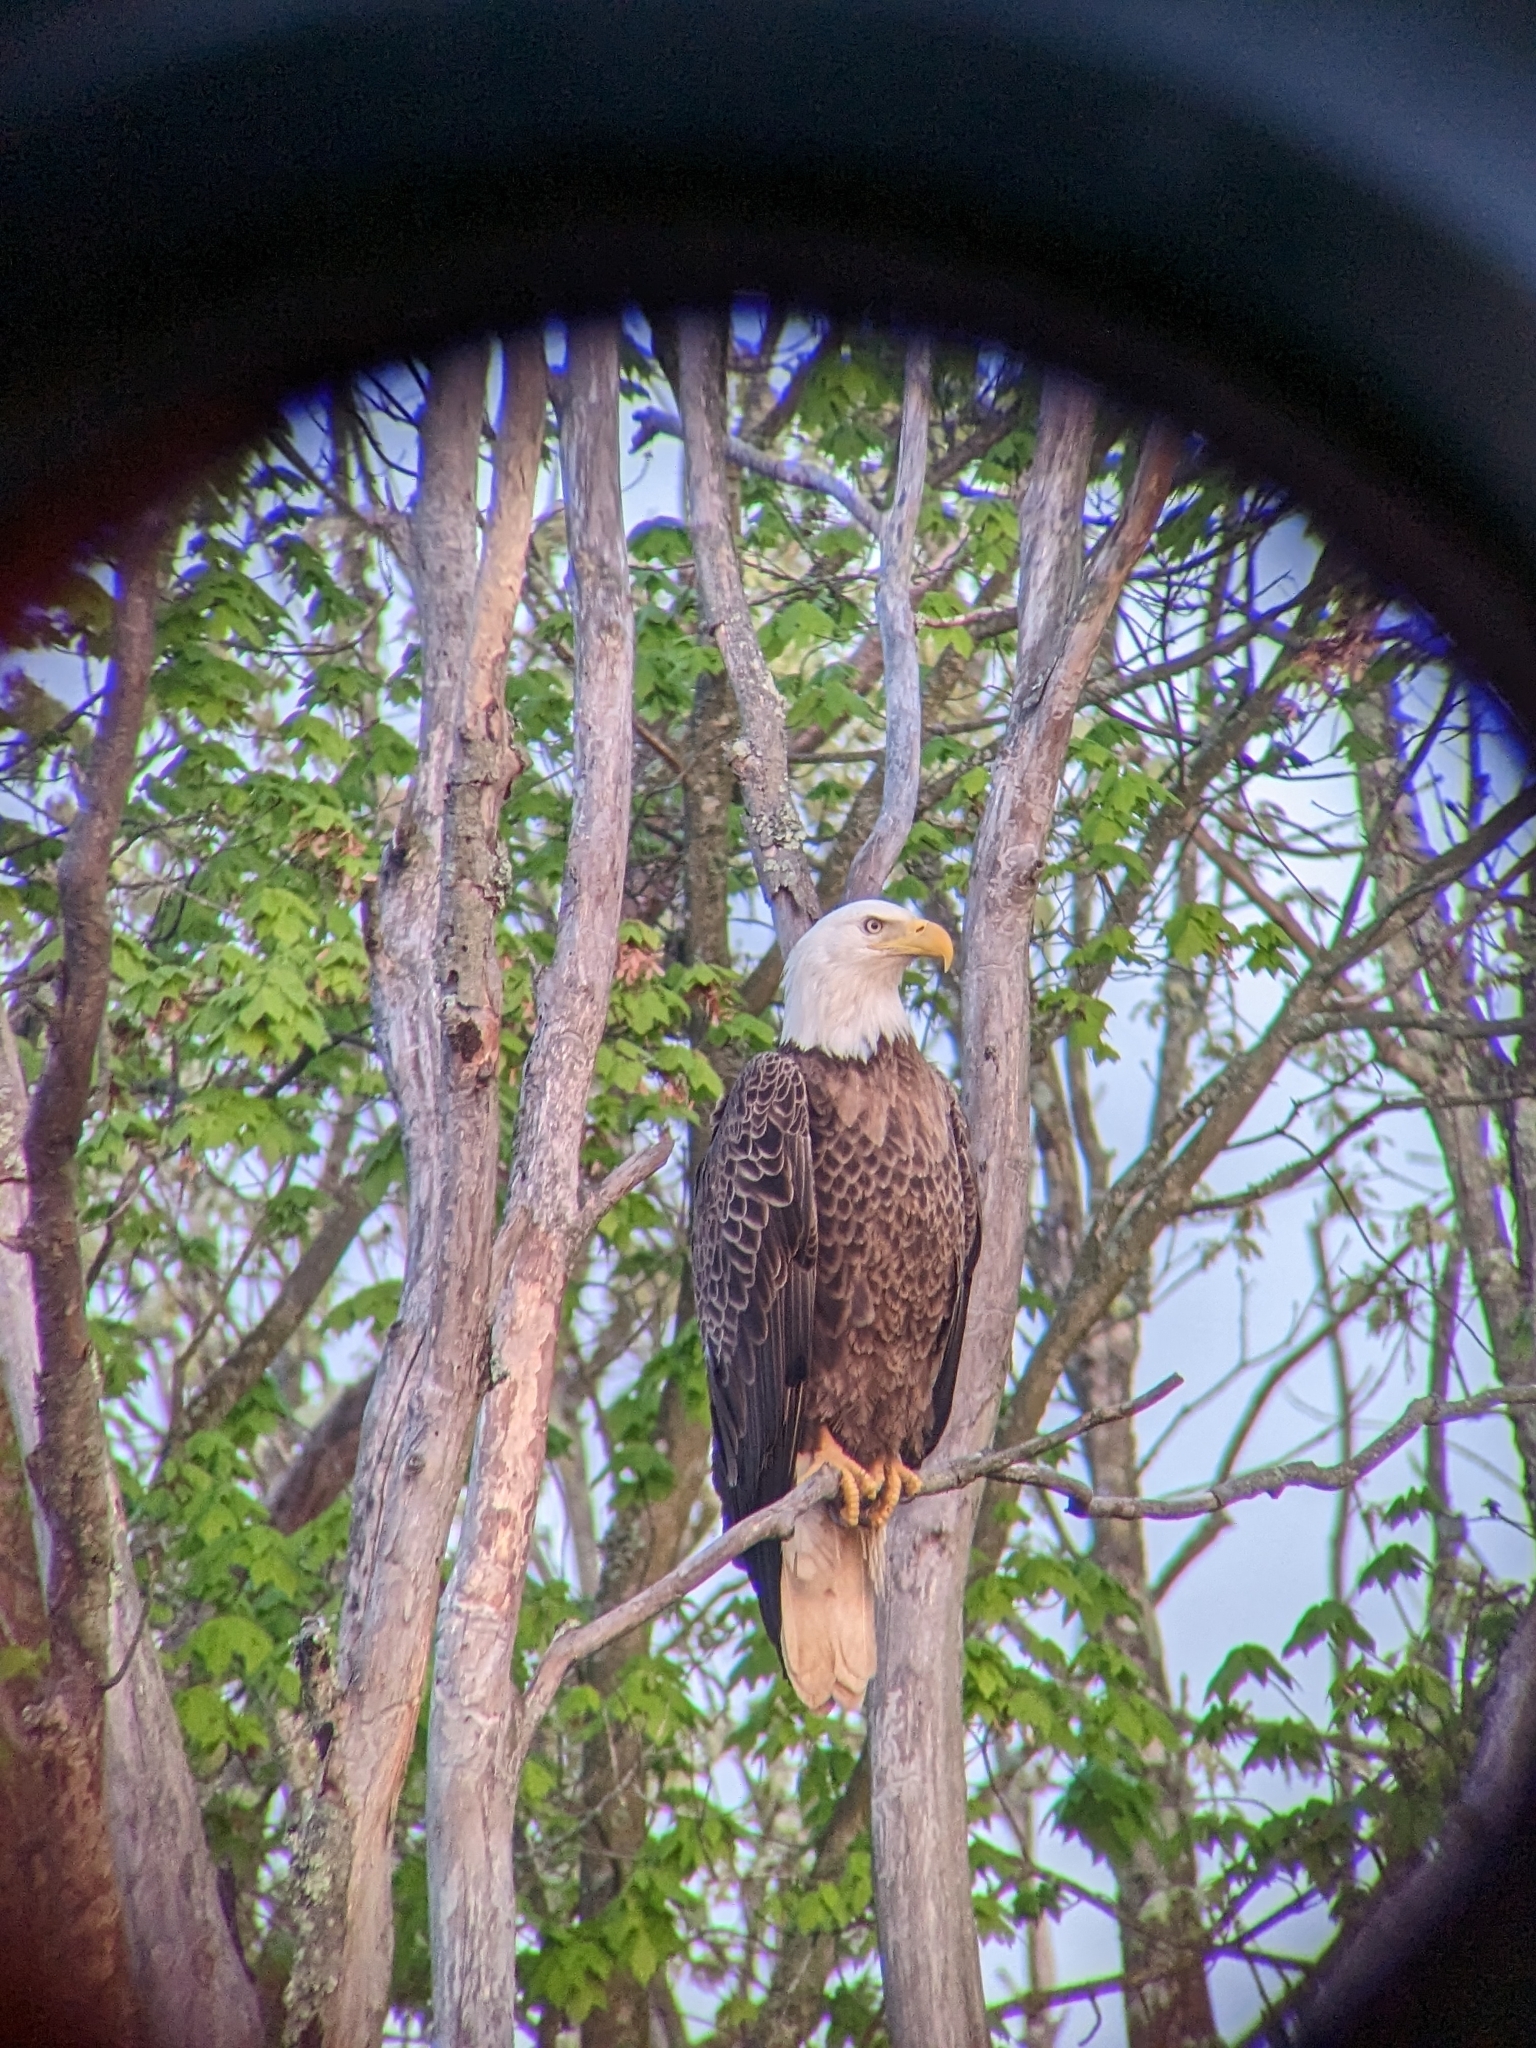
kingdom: Animalia
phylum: Chordata
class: Aves
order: Accipitriformes
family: Accipitridae
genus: Haliaeetus
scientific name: Haliaeetus leucocephalus
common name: Bald eagle
